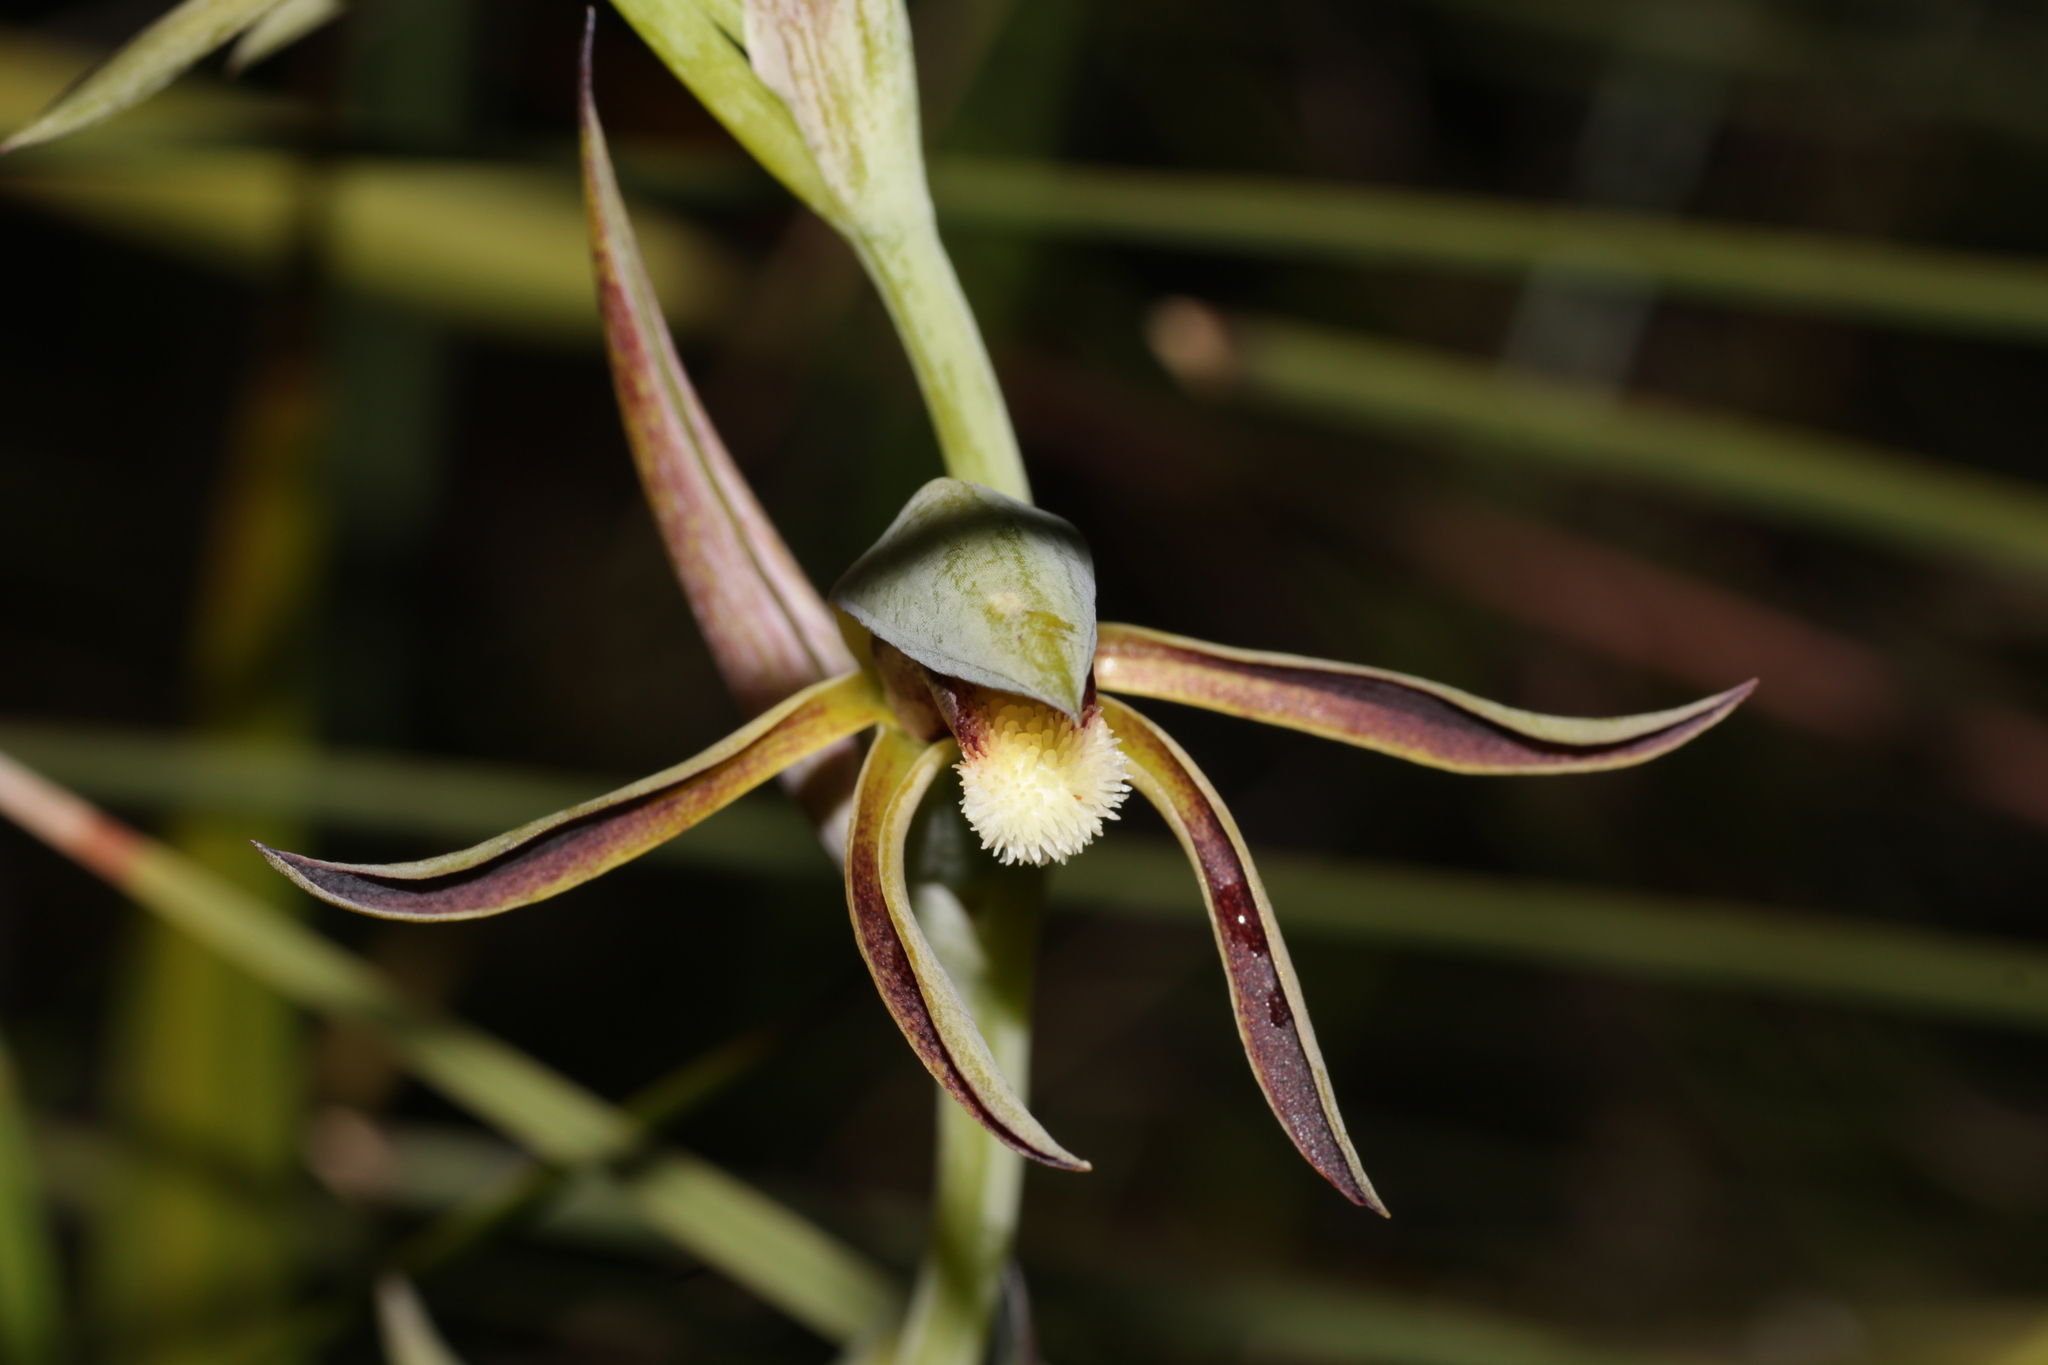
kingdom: Plantae
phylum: Tracheophyta
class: Liliopsida
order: Asparagales
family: Orchidaceae
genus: Lyperanthus
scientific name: Lyperanthus serratus
